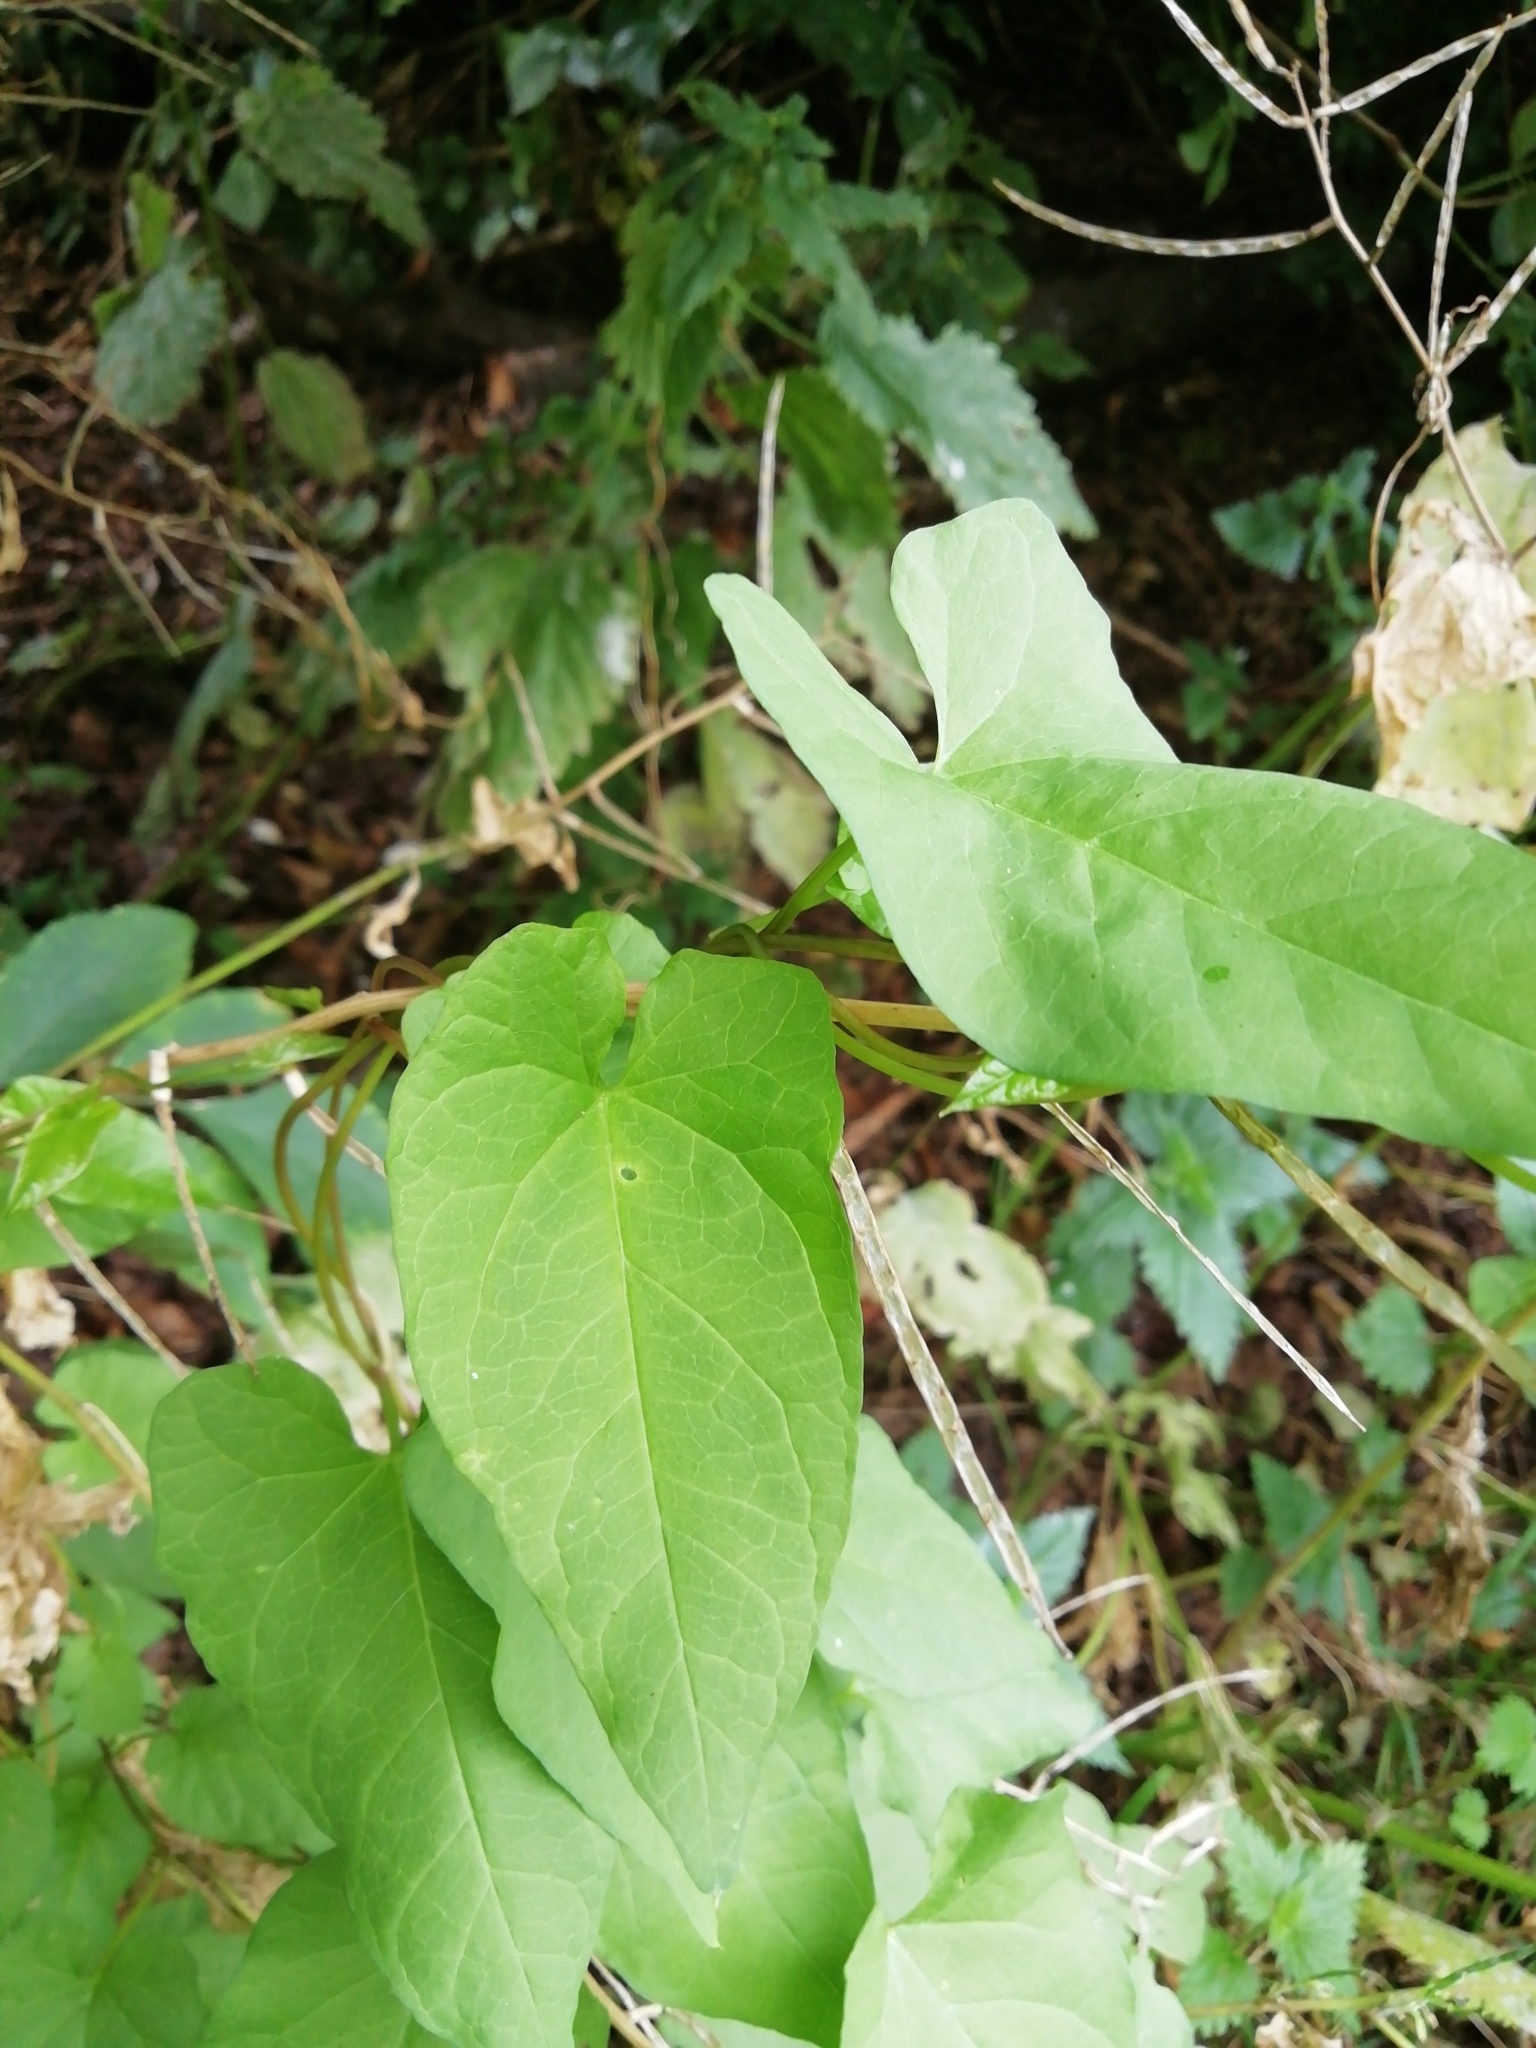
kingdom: Plantae
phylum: Tracheophyta
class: Magnoliopsida
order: Solanales
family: Convolvulaceae
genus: Calystegia
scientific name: Calystegia
